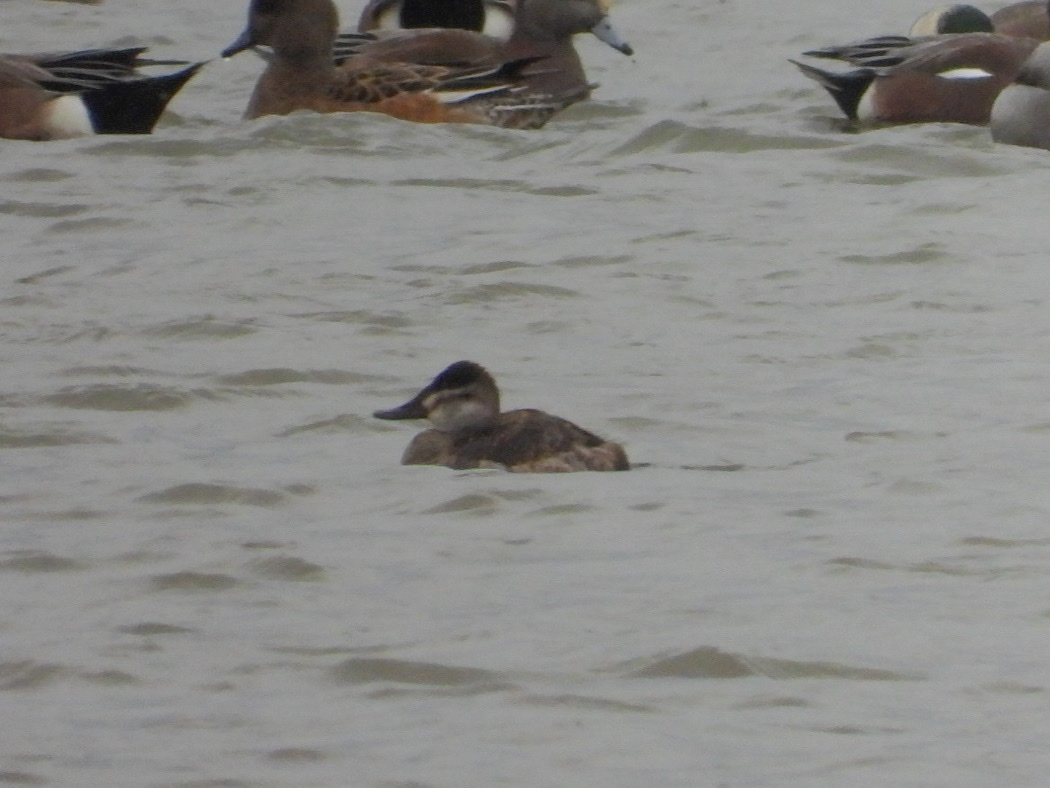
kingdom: Animalia
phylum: Chordata
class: Aves
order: Anseriformes
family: Anatidae
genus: Oxyura
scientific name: Oxyura jamaicensis
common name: Ruddy duck
